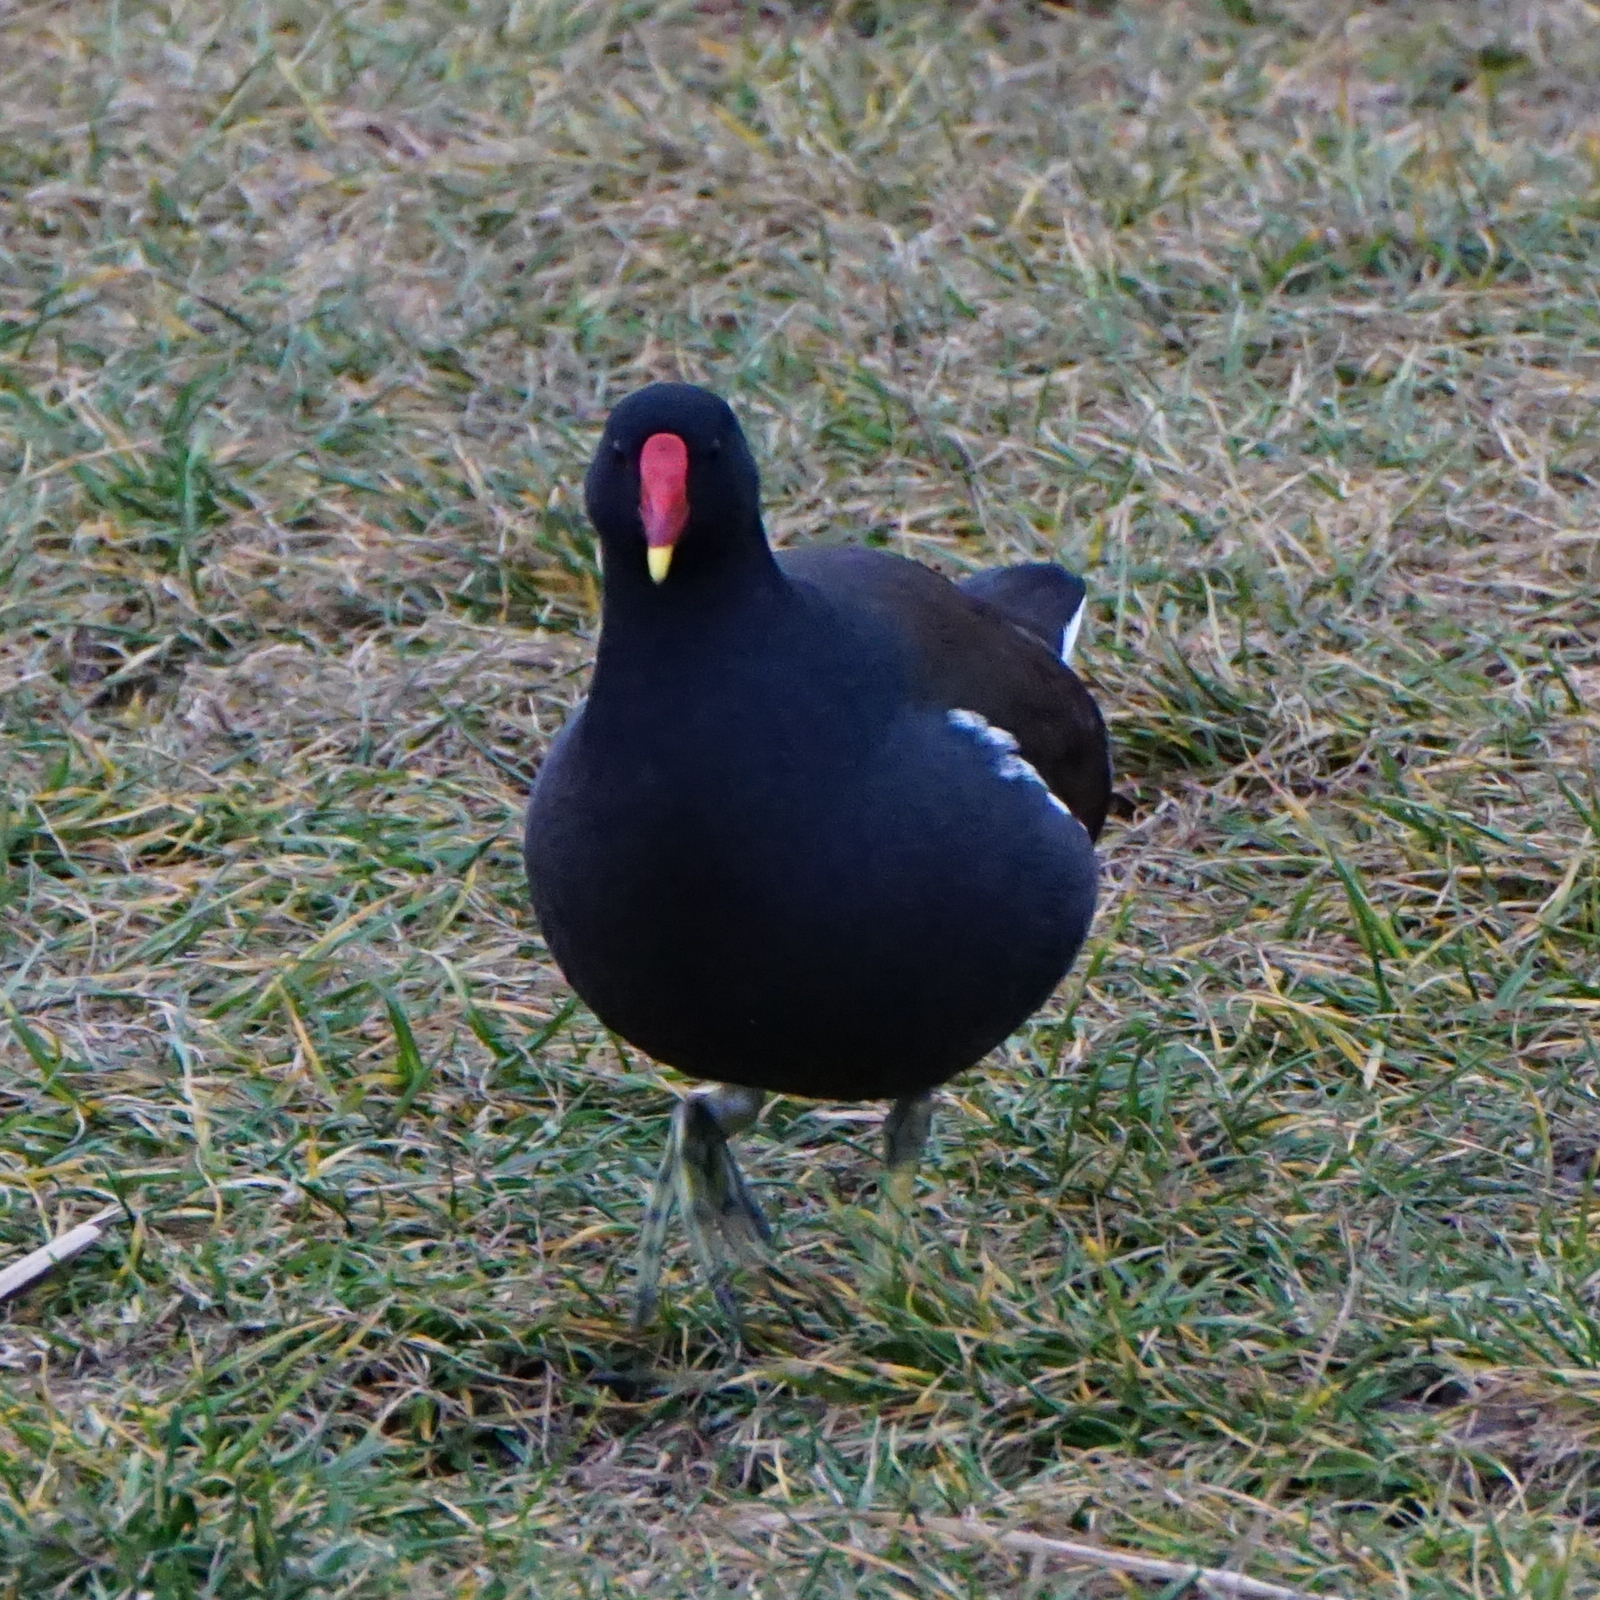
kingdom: Animalia
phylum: Chordata
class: Aves
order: Gruiformes
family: Rallidae
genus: Gallinula
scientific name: Gallinula chloropus
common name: Common moorhen
